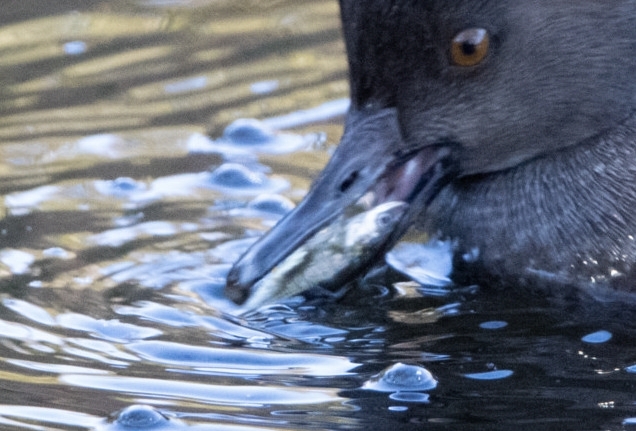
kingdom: Animalia
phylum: Chordata
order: Gasterosteiformes
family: Gasterosteidae
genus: Gasterosteus
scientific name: Gasterosteus aculeatus
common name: Three-spined stickleback
